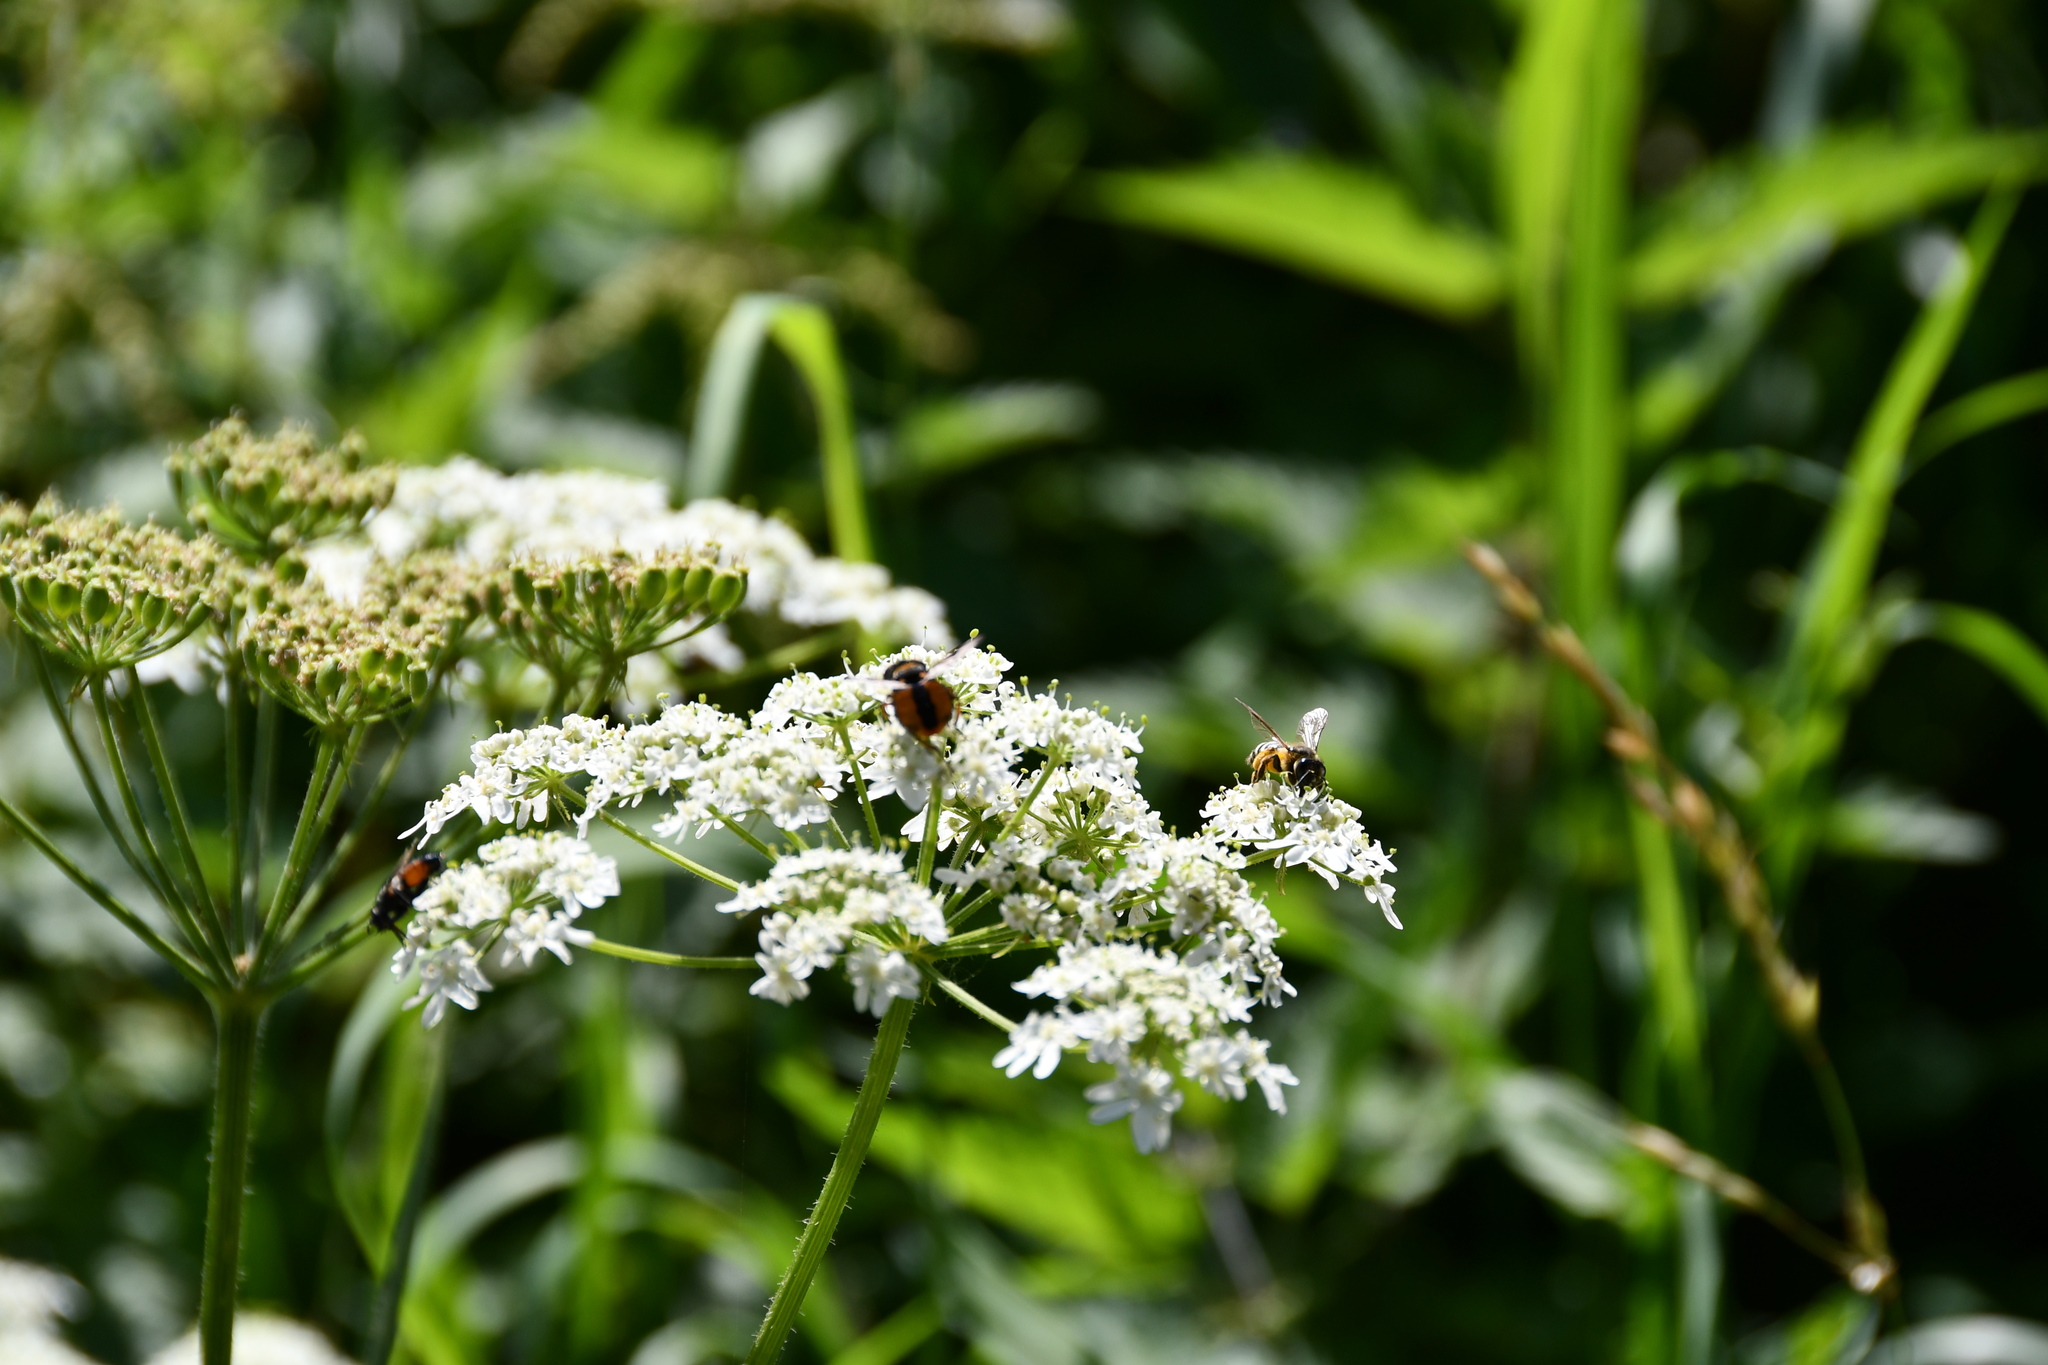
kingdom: Animalia
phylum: Arthropoda
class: Insecta
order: Diptera
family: Tachinidae
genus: Ectophasia
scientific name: Ectophasia crassipennis
